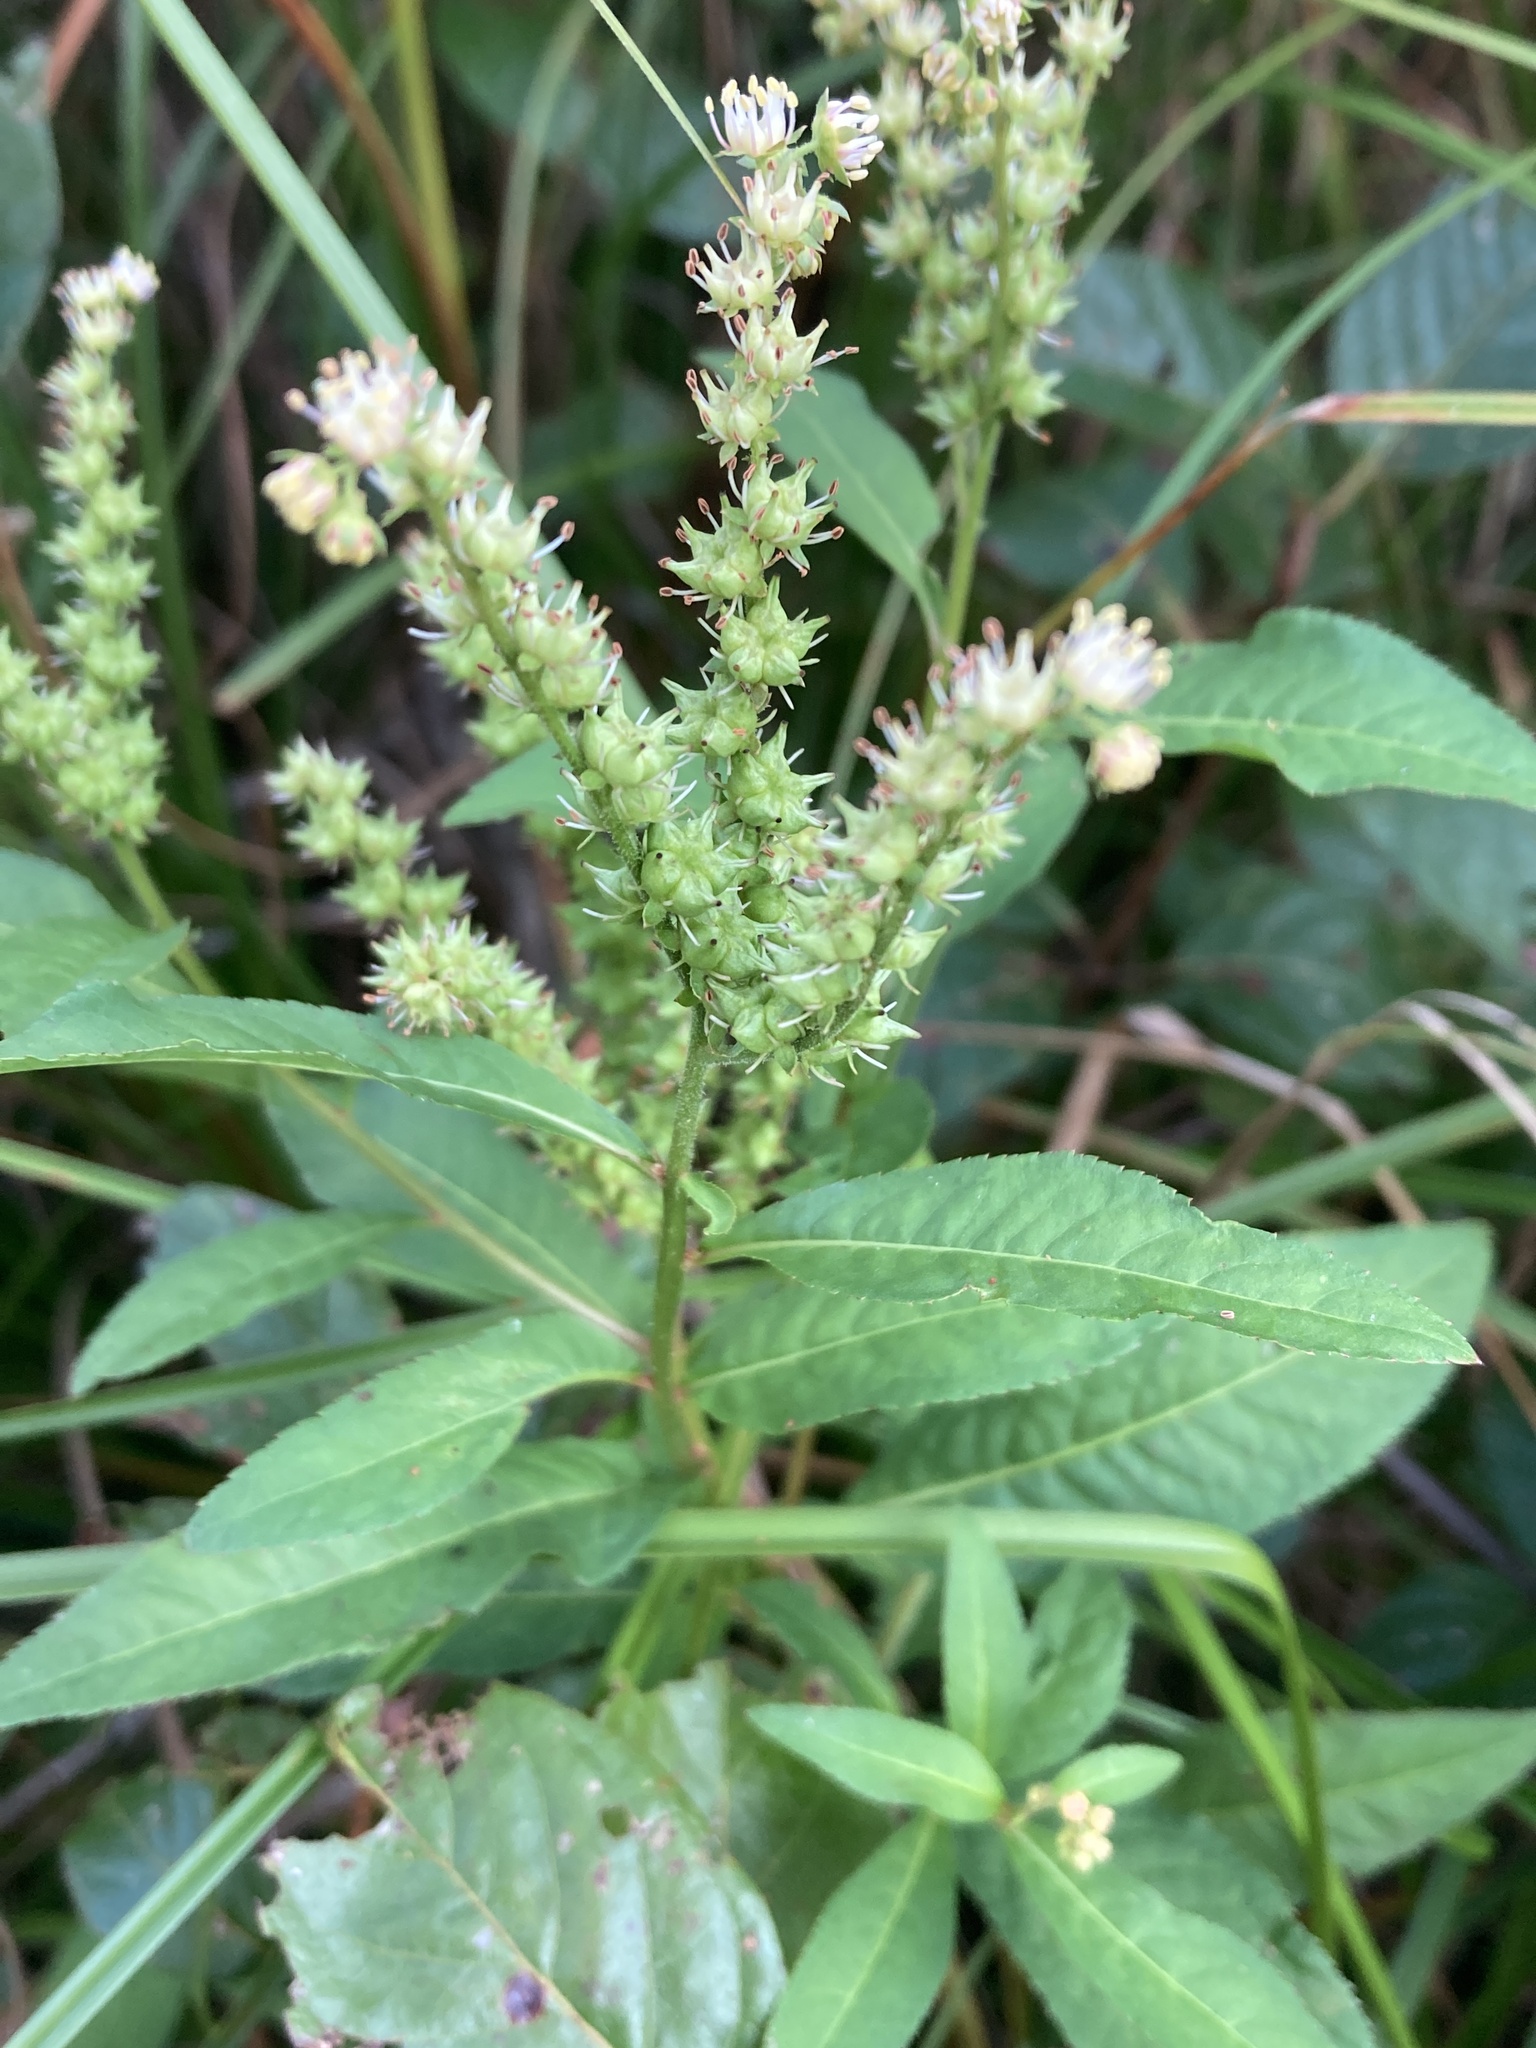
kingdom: Plantae
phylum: Tracheophyta
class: Magnoliopsida
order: Saxifragales
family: Penthoraceae
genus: Penthorum
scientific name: Penthorum sedoides
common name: Ditch stonecrop
